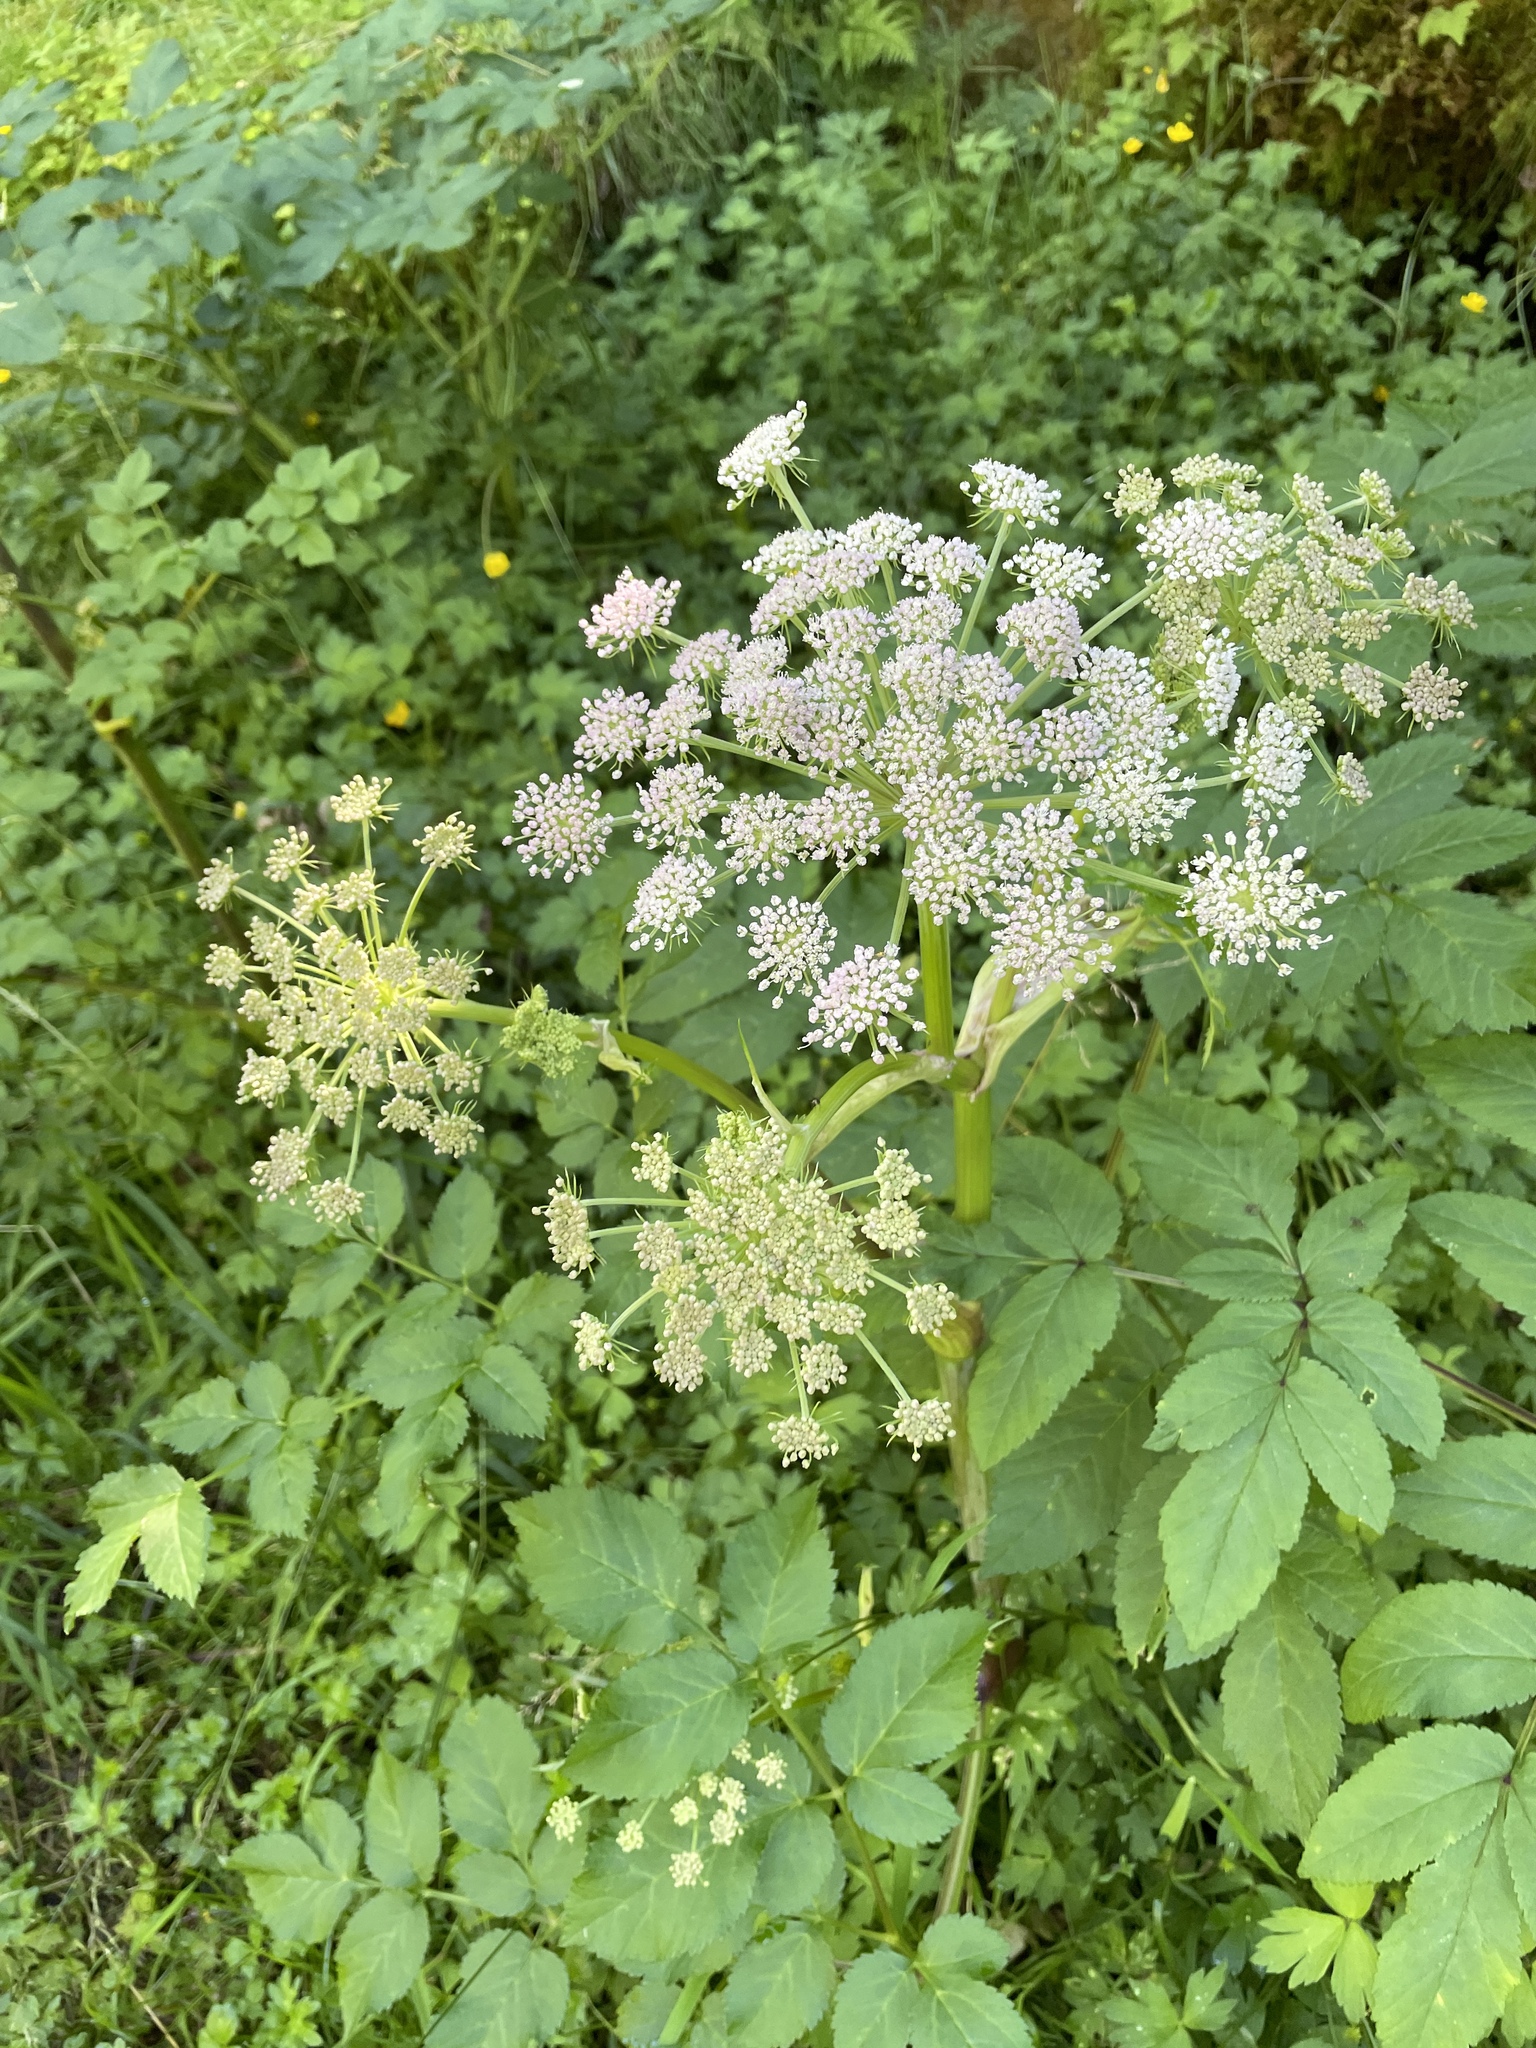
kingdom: Plantae
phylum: Tracheophyta
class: Magnoliopsida
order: Apiales
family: Apiaceae
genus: Angelica
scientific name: Angelica sylvestris
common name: Wild angelica
